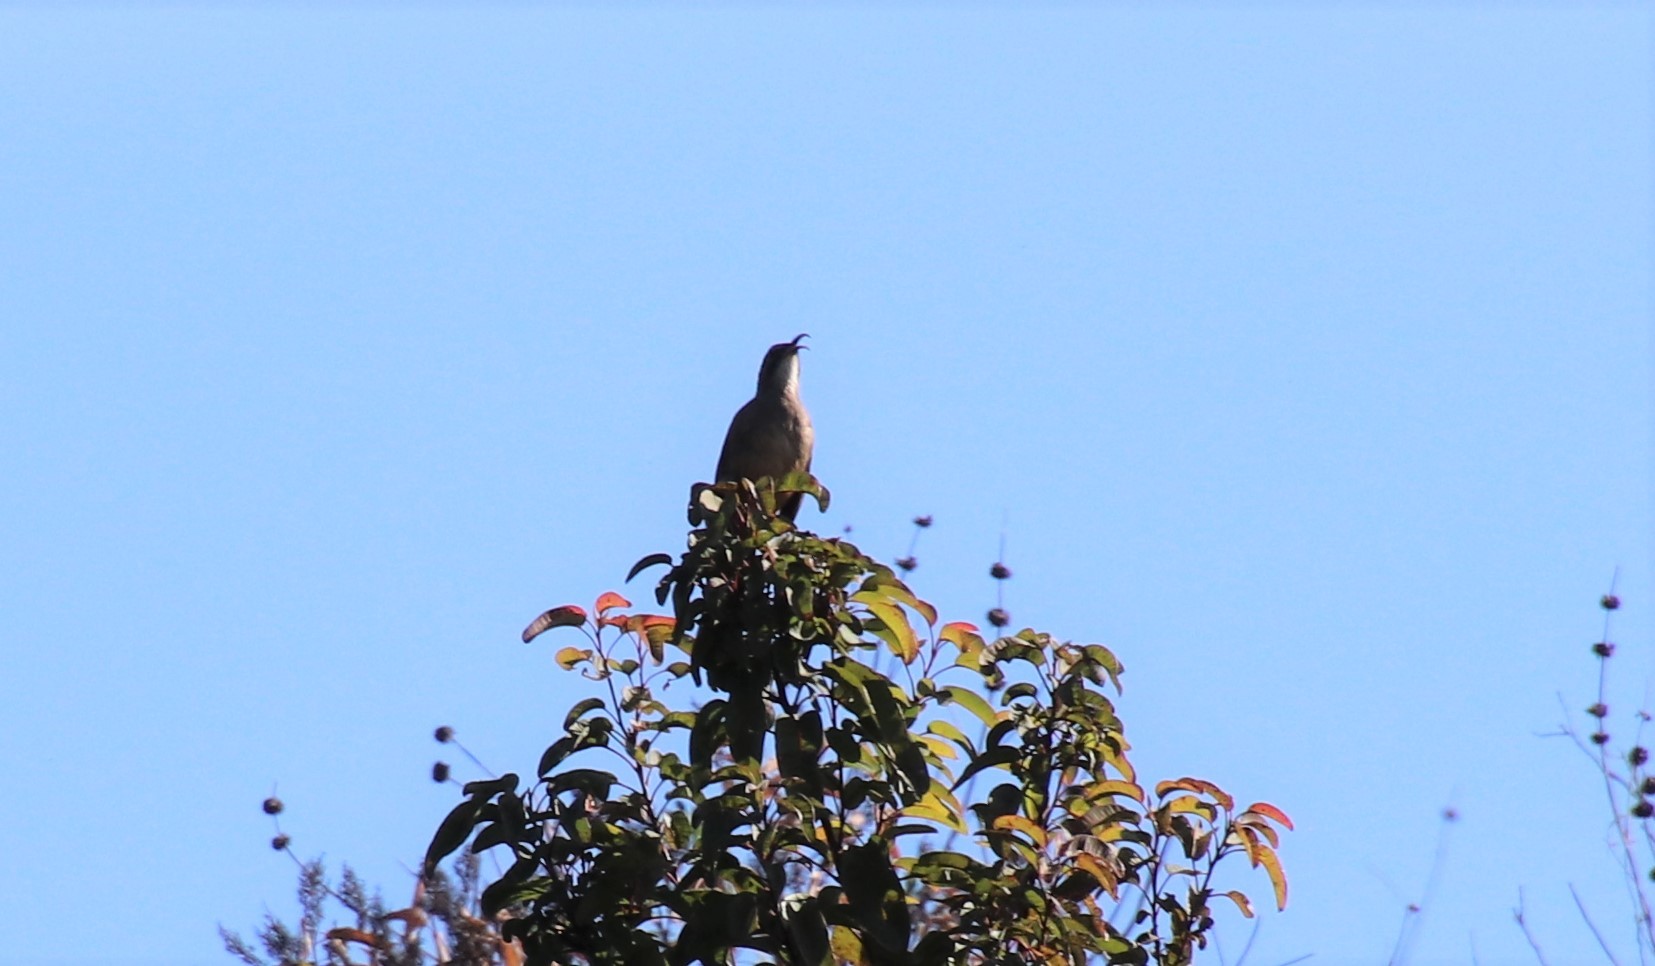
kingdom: Animalia
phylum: Chordata
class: Aves
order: Passeriformes
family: Mimidae
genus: Toxostoma
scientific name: Toxostoma redivivum
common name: California thrasher
